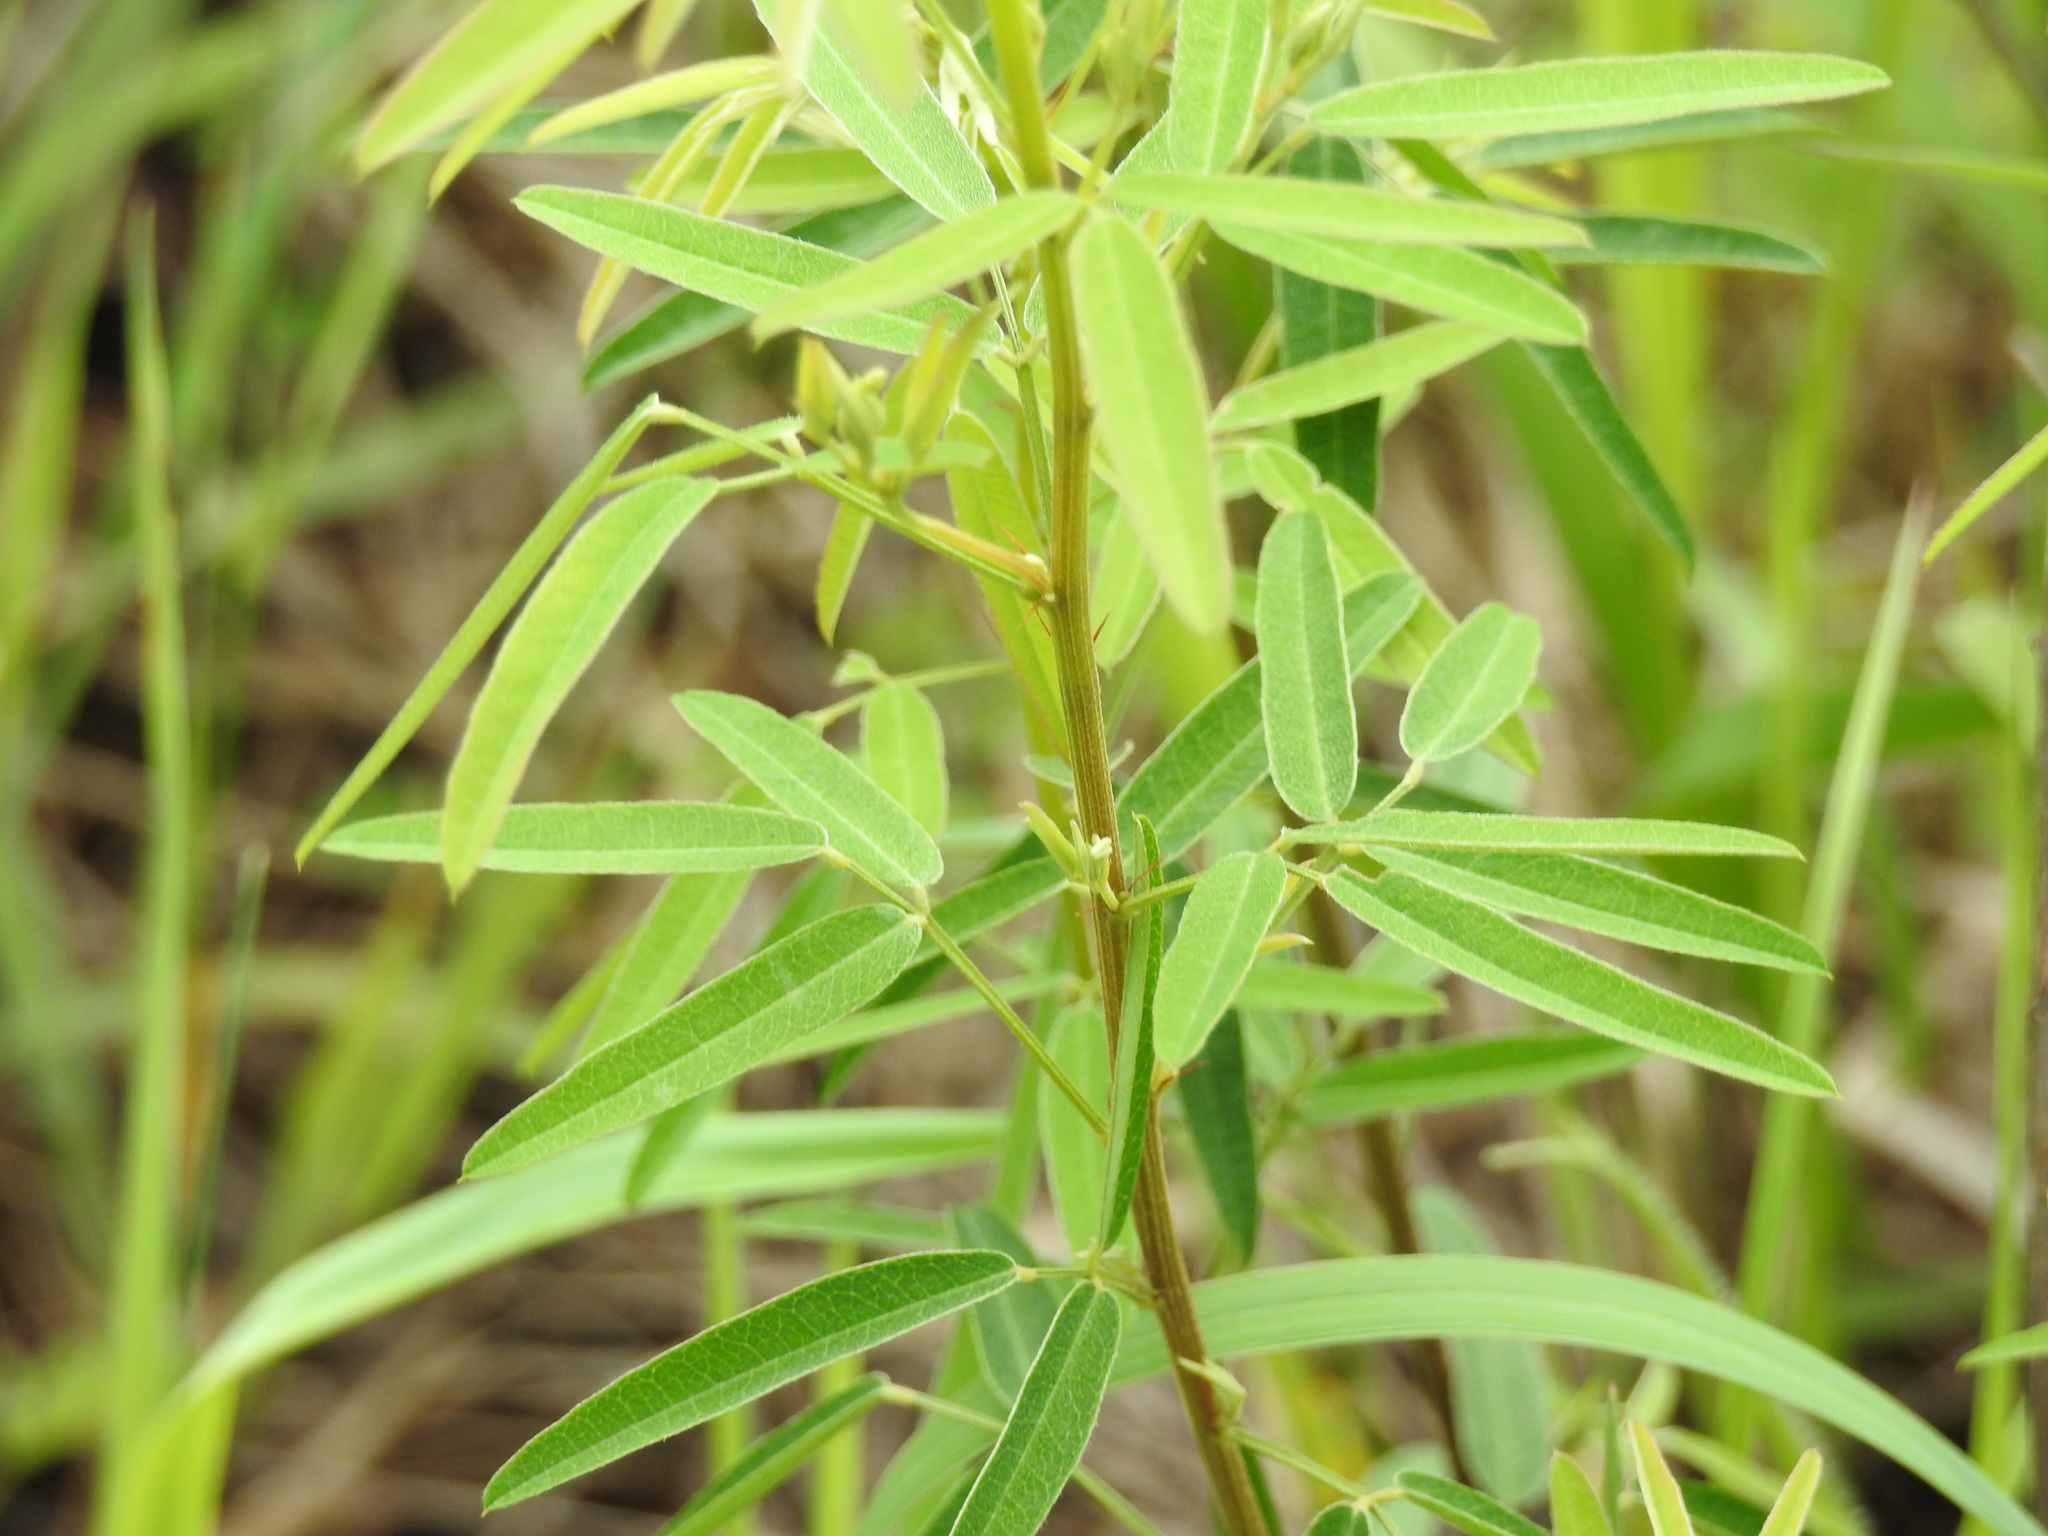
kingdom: Plantae
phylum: Tracheophyta
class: Magnoliopsida
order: Fabales
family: Fabaceae
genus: Lespedeza
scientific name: Lespedeza virginica
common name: Slender bush-clover
